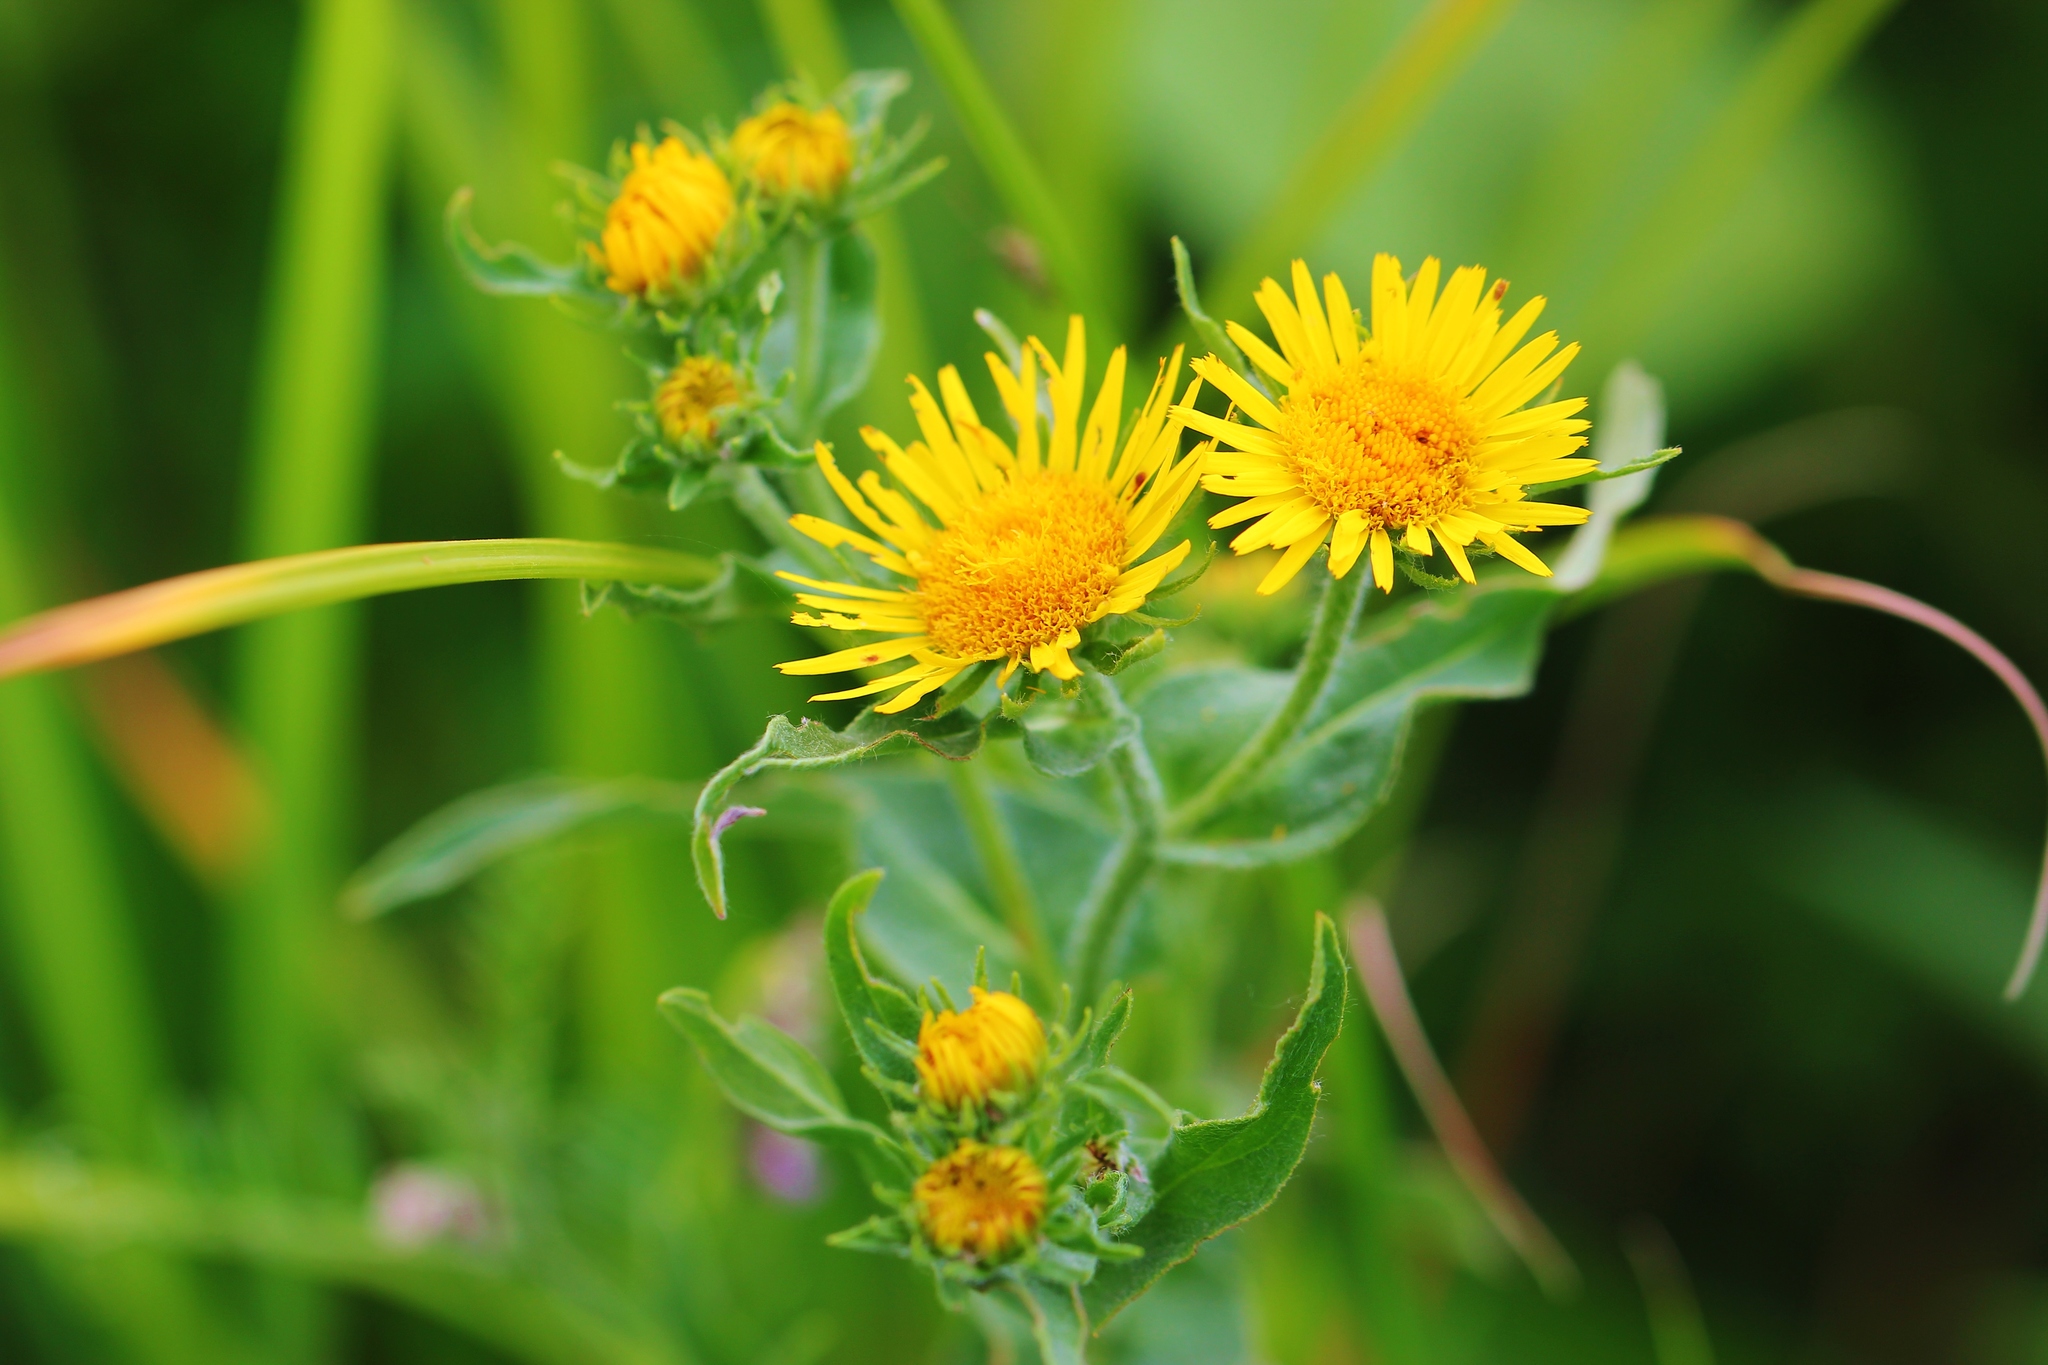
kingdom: Plantae
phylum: Tracheophyta
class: Magnoliopsida
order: Asterales
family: Asteraceae
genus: Pentanema
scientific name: Pentanema britannicum
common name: British elecampane
